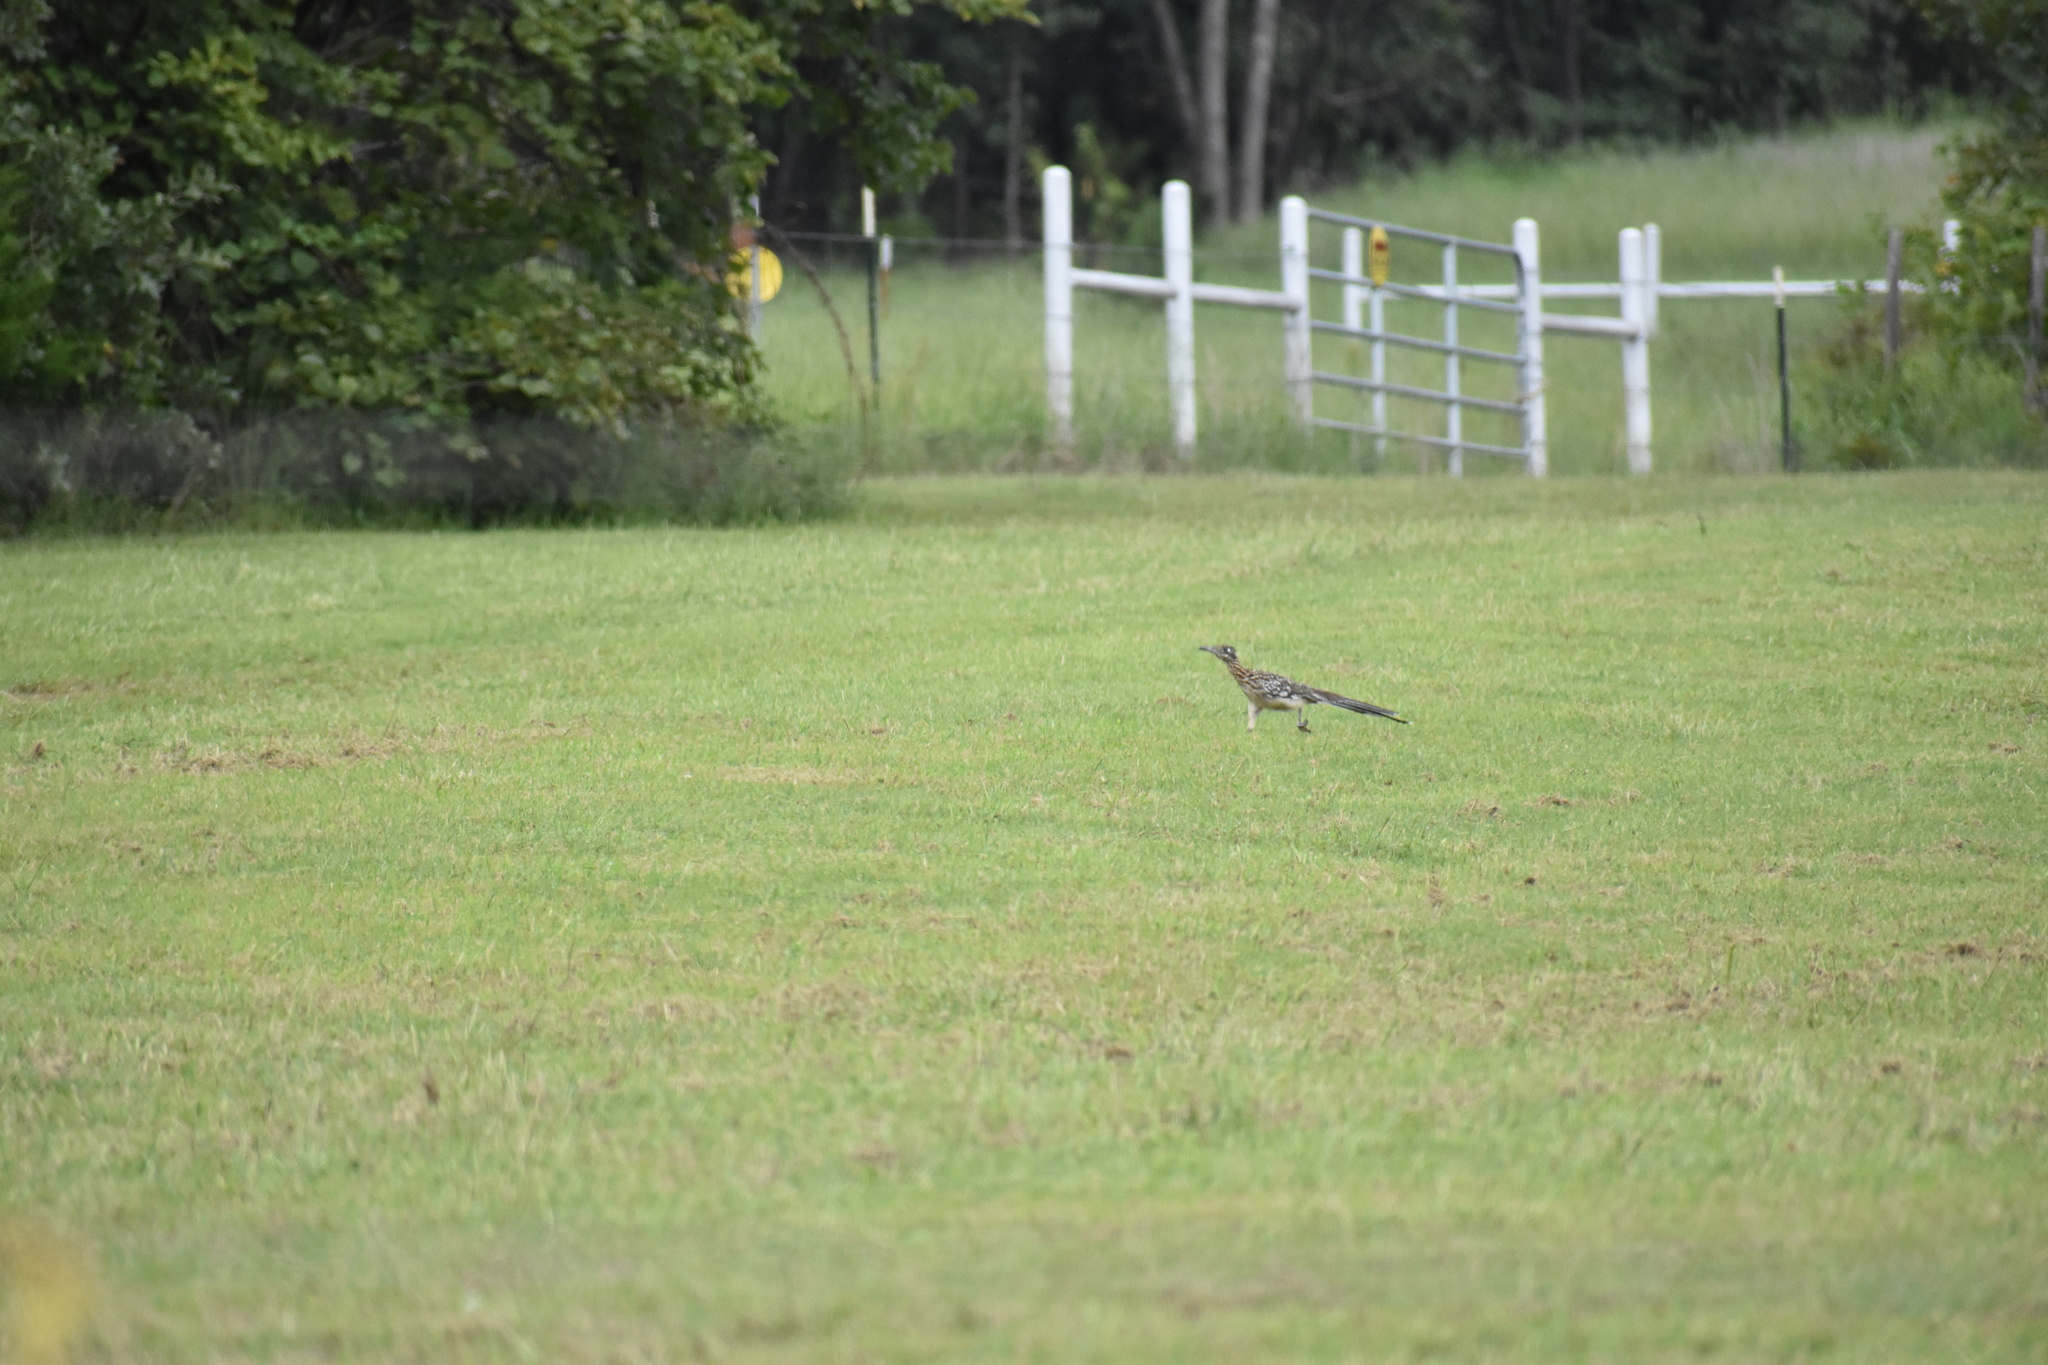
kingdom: Animalia
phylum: Chordata
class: Aves
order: Cuculiformes
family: Cuculidae
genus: Geococcyx
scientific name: Geococcyx californianus
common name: Greater roadrunner
